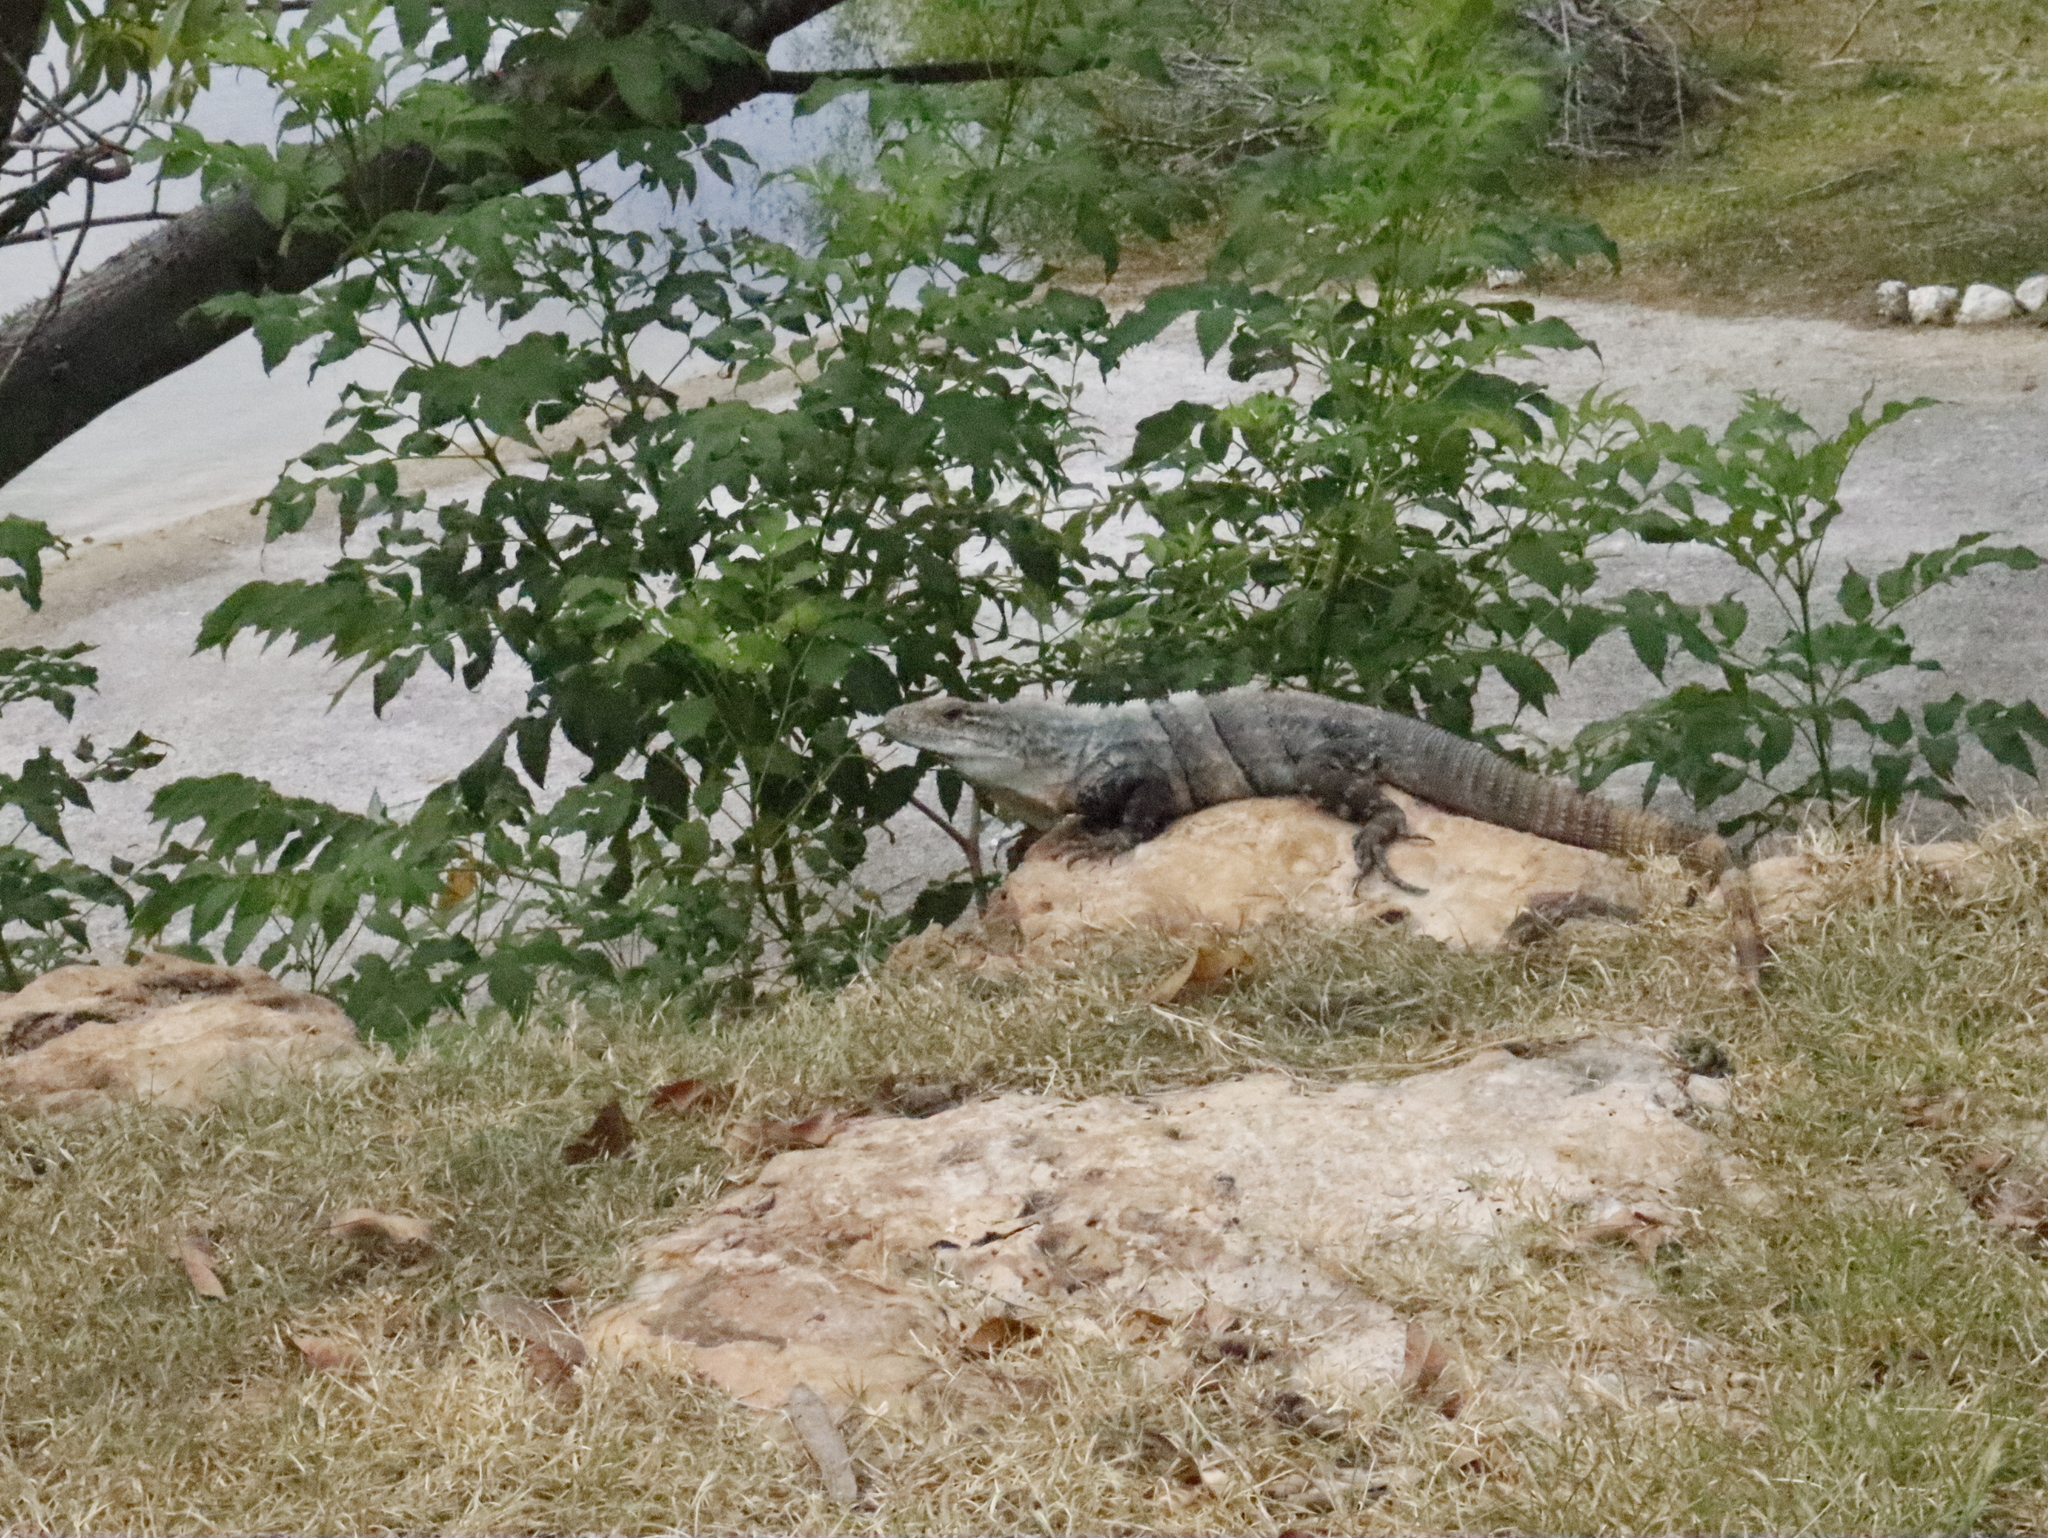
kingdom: Animalia
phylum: Chordata
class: Squamata
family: Iguanidae
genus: Ctenosaura
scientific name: Ctenosaura similis
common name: Black spiny-tailed iguana
